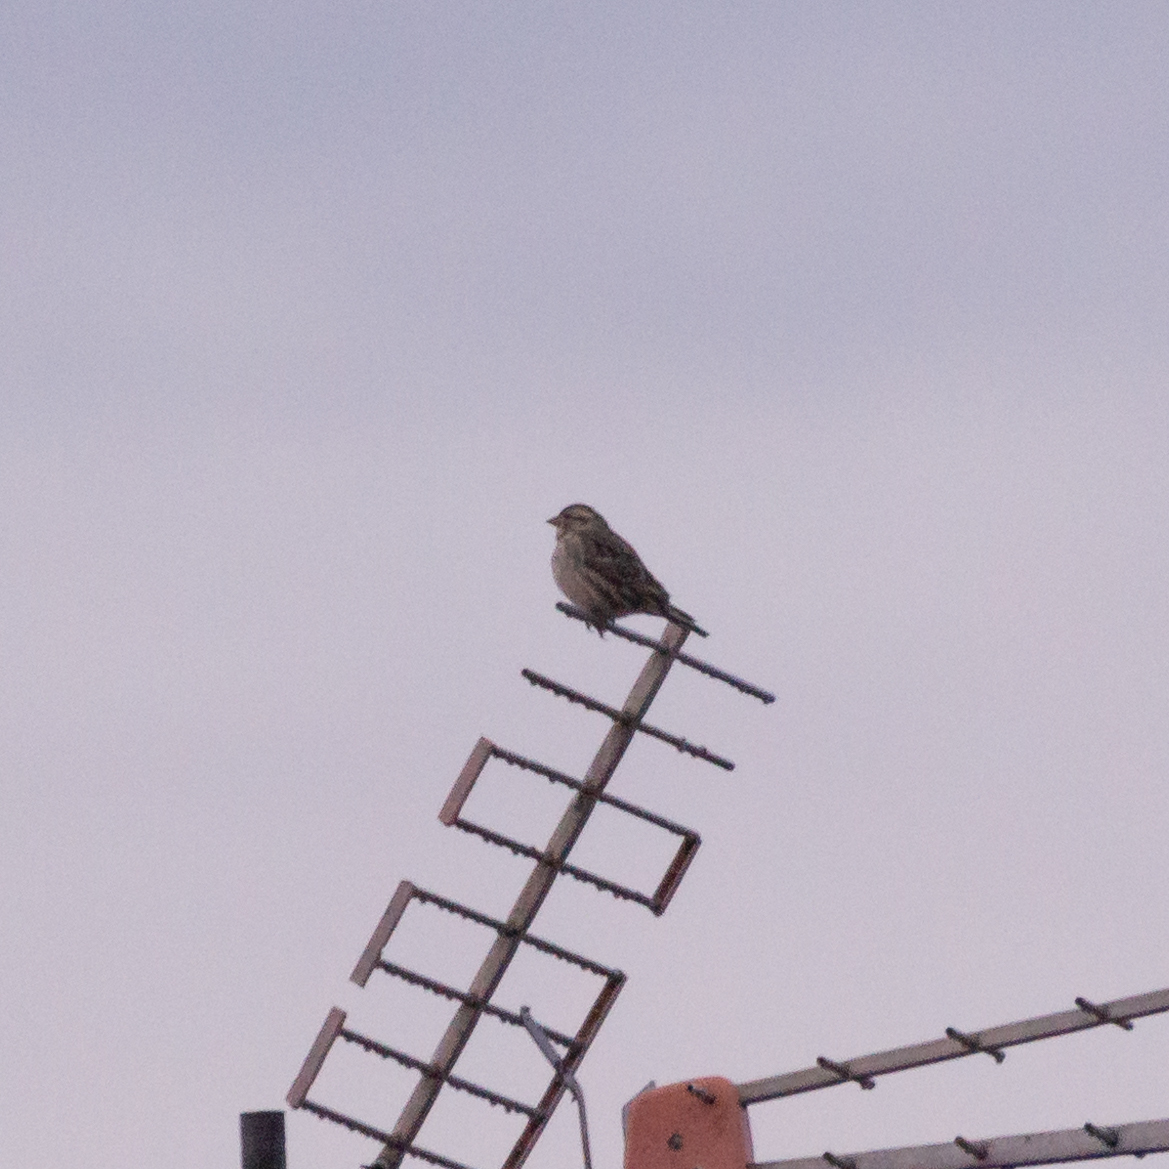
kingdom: Animalia
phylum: Chordata
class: Aves
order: Passeriformes
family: Passeridae
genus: Petronia
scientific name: Petronia petronia
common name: Rock sparrow
